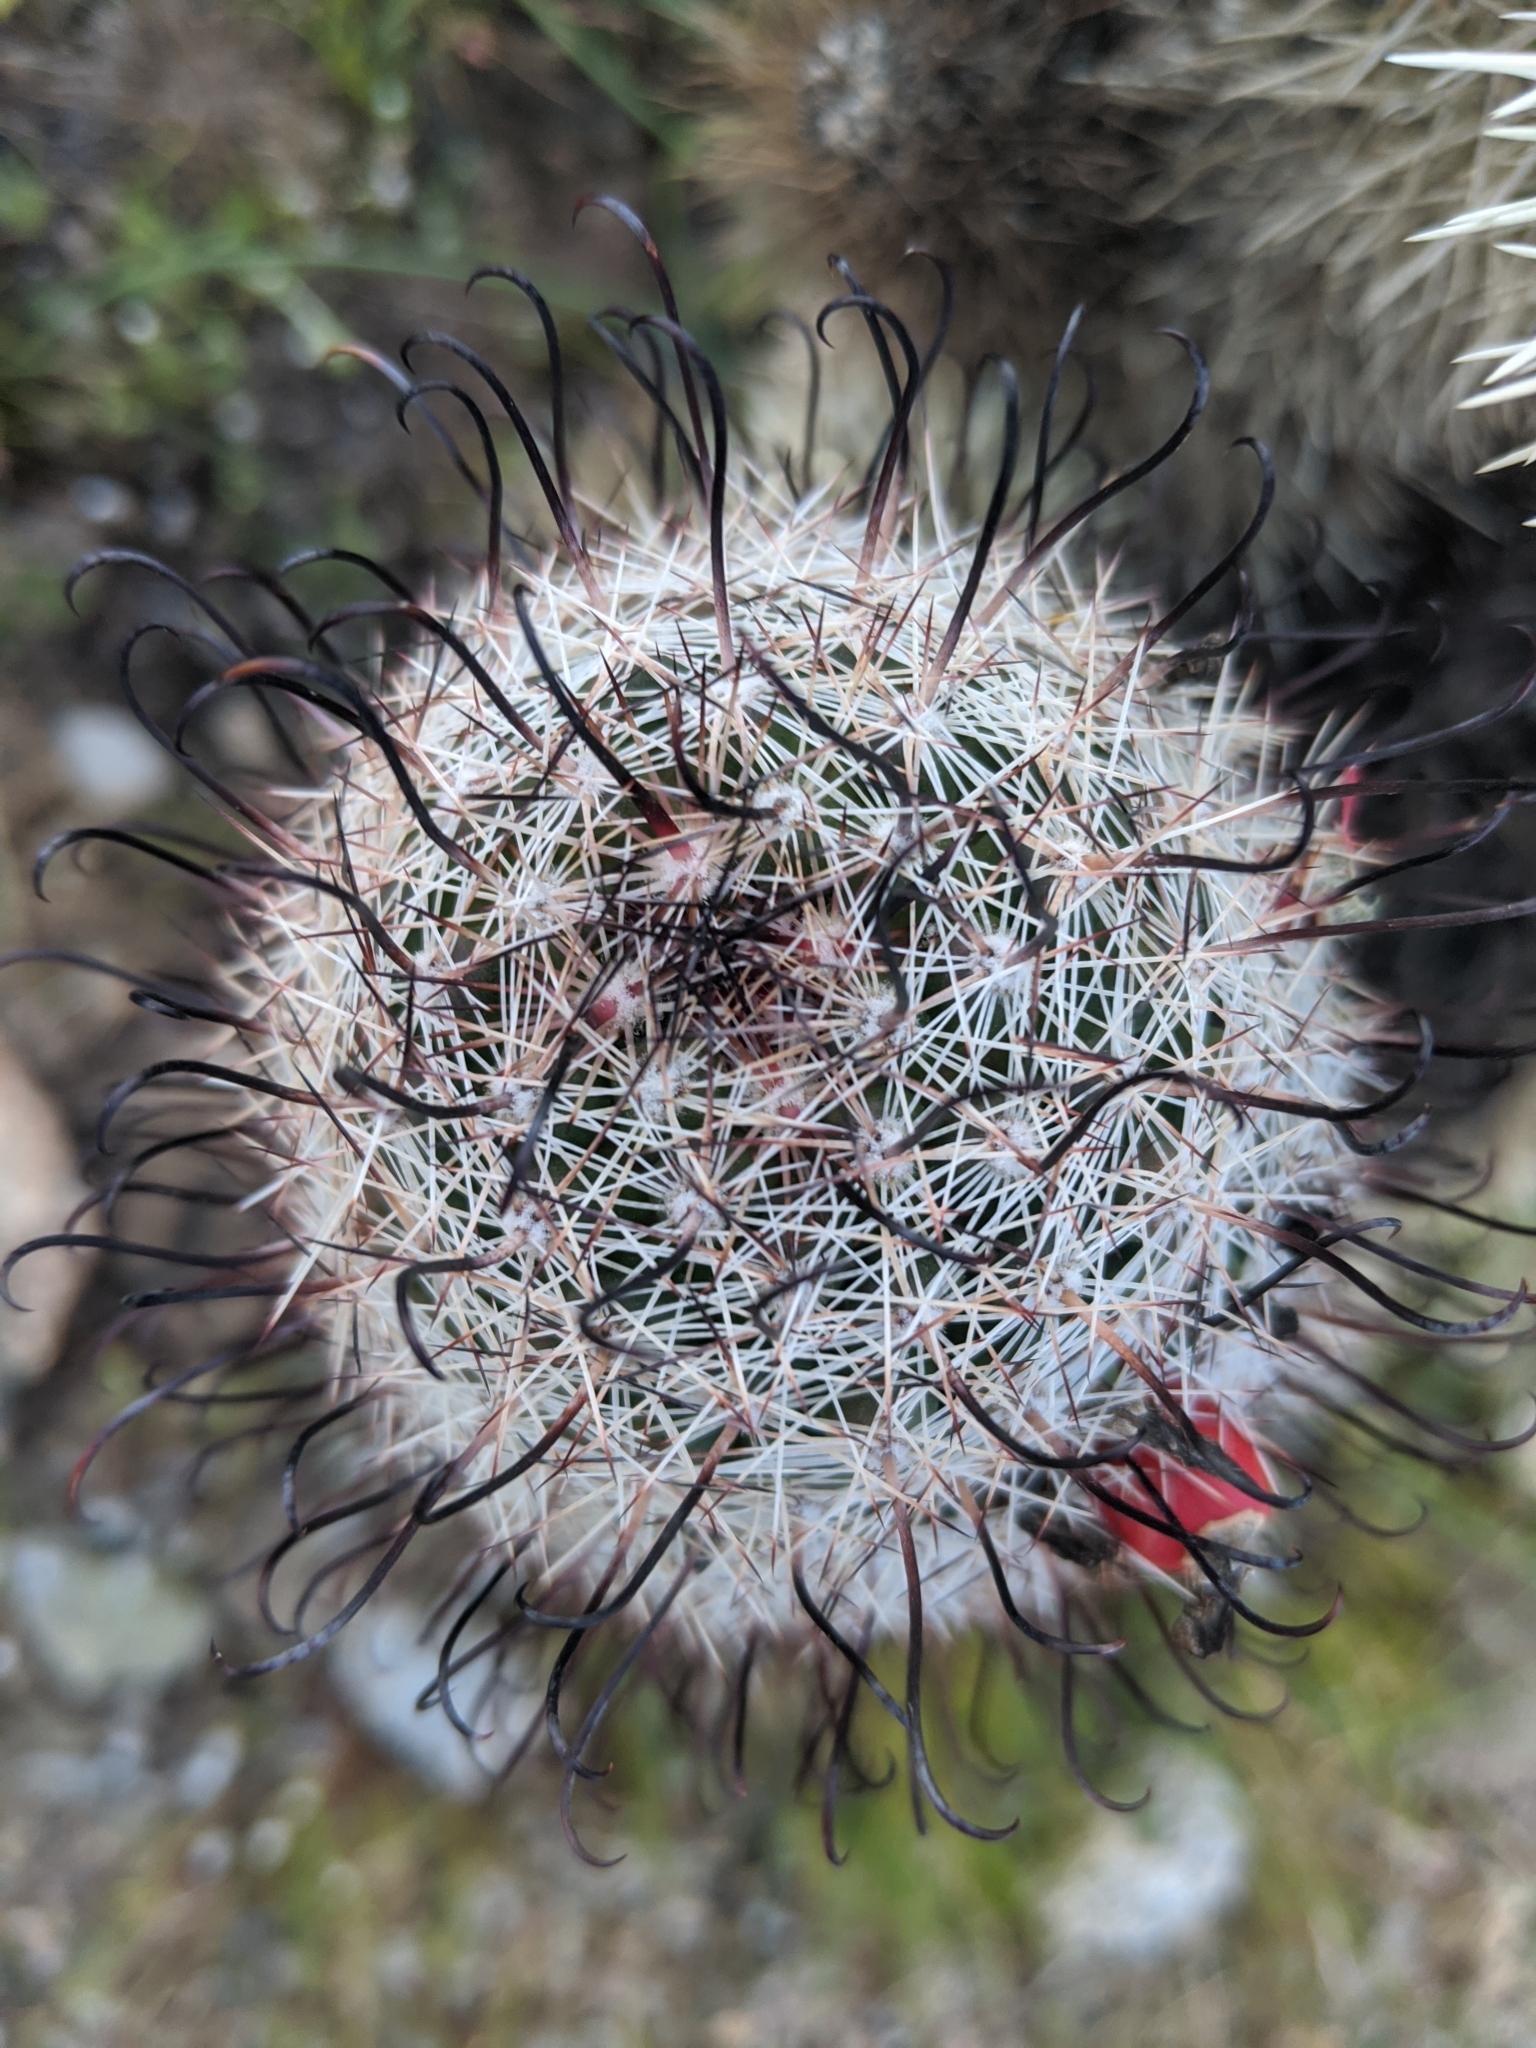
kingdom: Plantae
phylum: Tracheophyta
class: Magnoliopsida
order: Caryophyllales
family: Cactaceae
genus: Cochemiea
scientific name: Cochemiea grahamii
